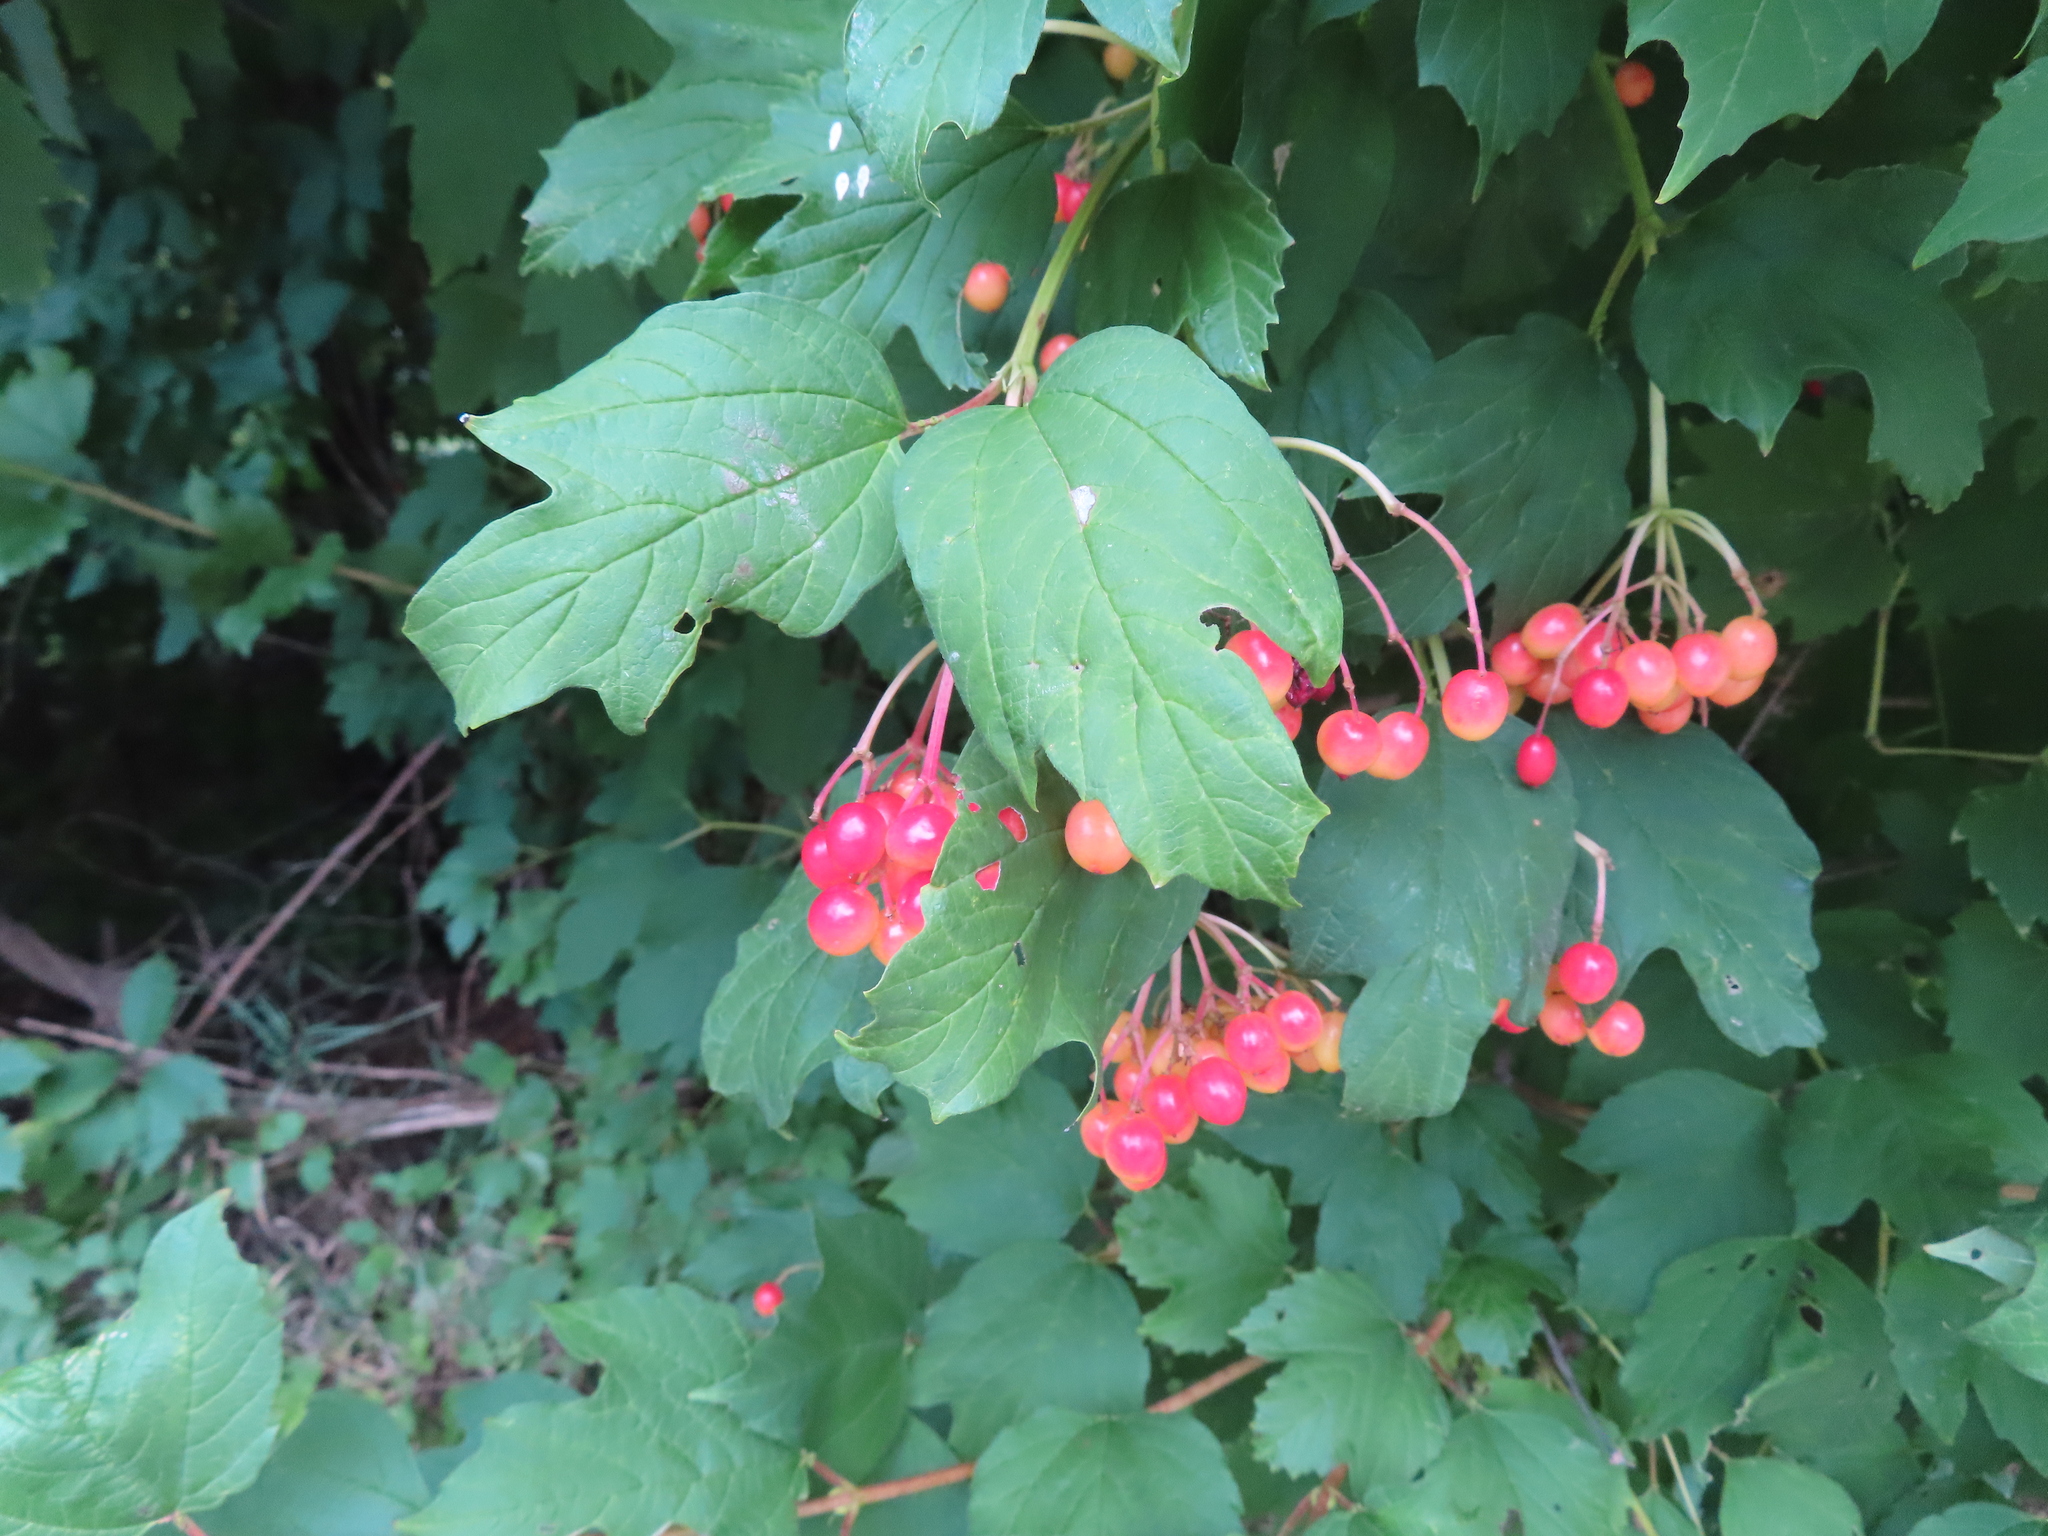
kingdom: Plantae
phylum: Tracheophyta
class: Magnoliopsida
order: Dipsacales
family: Viburnaceae
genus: Viburnum
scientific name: Viburnum opulus
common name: Guelder-rose
